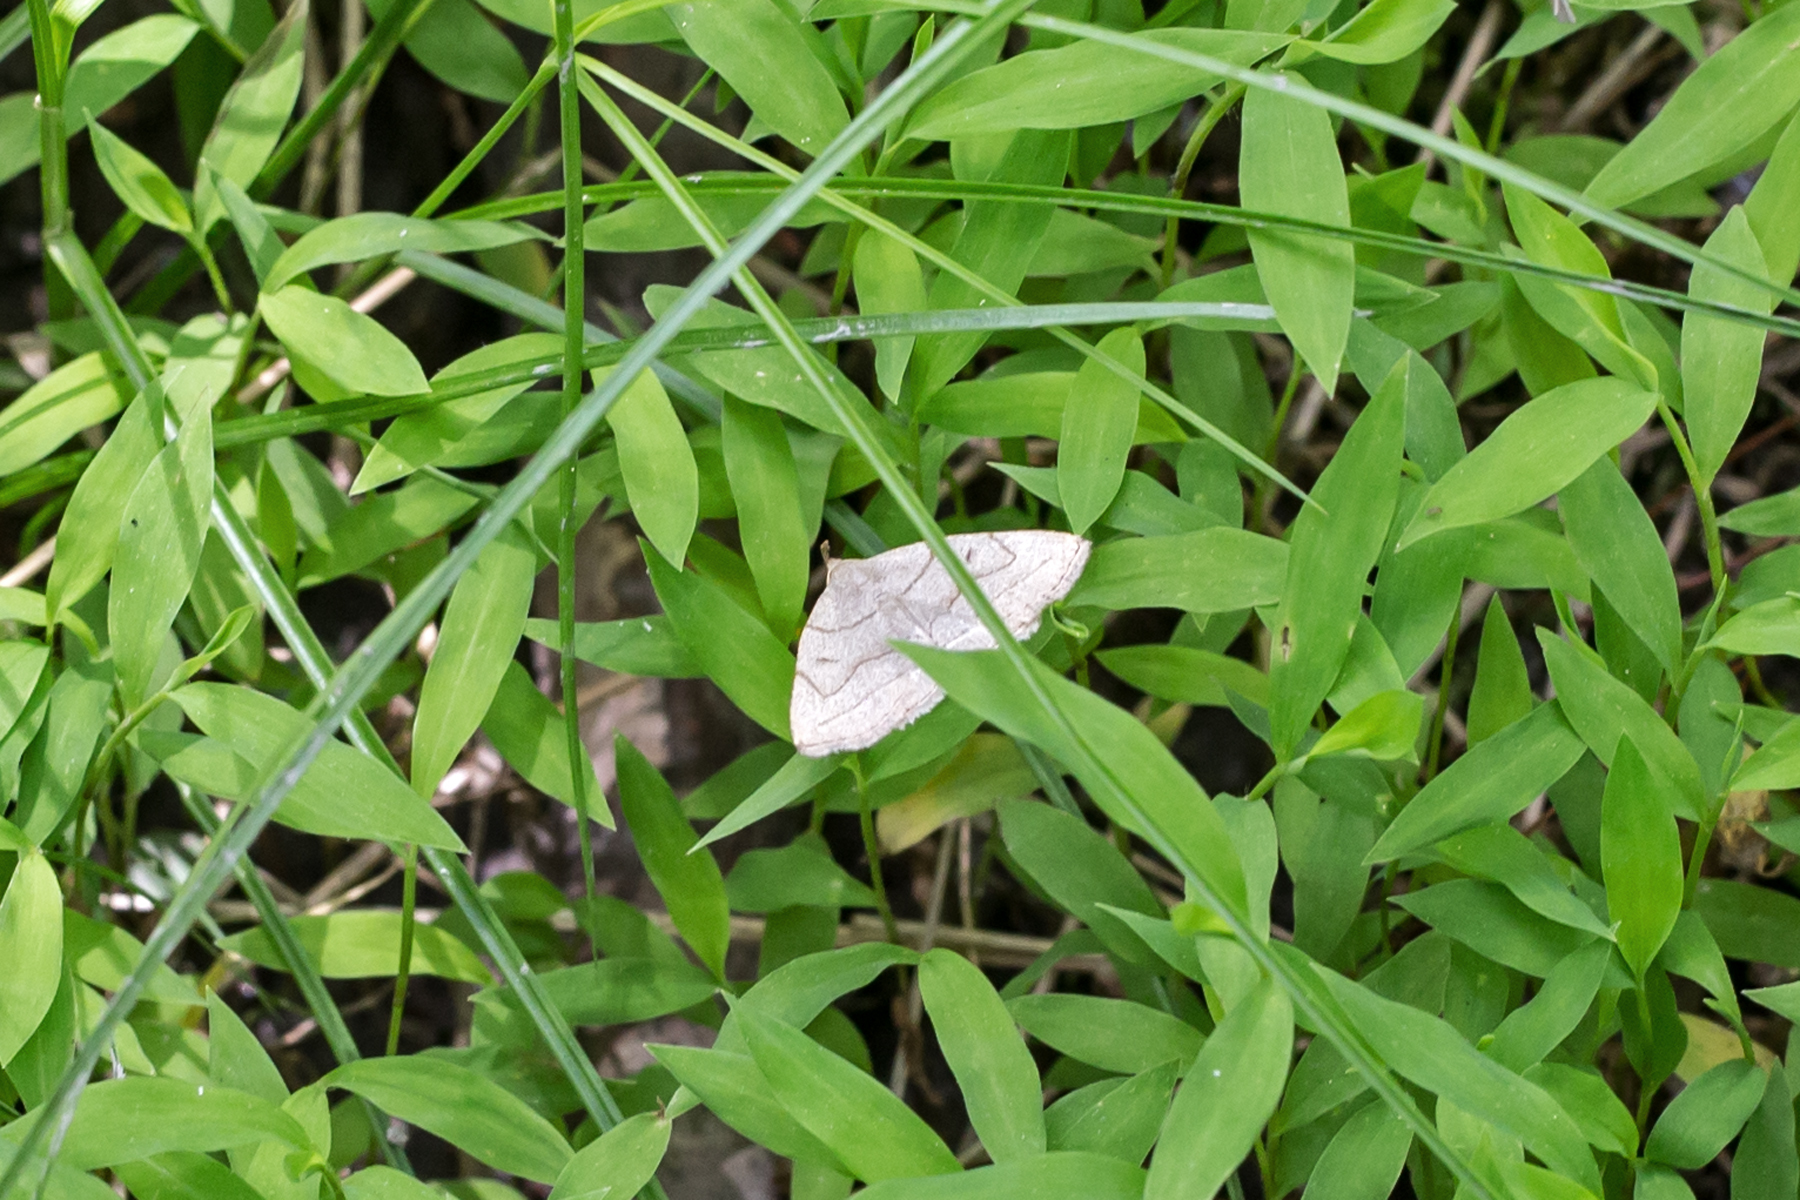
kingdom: Animalia
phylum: Arthropoda
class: Insecta
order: Lepidoptera
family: Erebidae
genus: Zanclognatha
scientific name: Zanclognatha pedipilalis
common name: Grayish fan-foot
